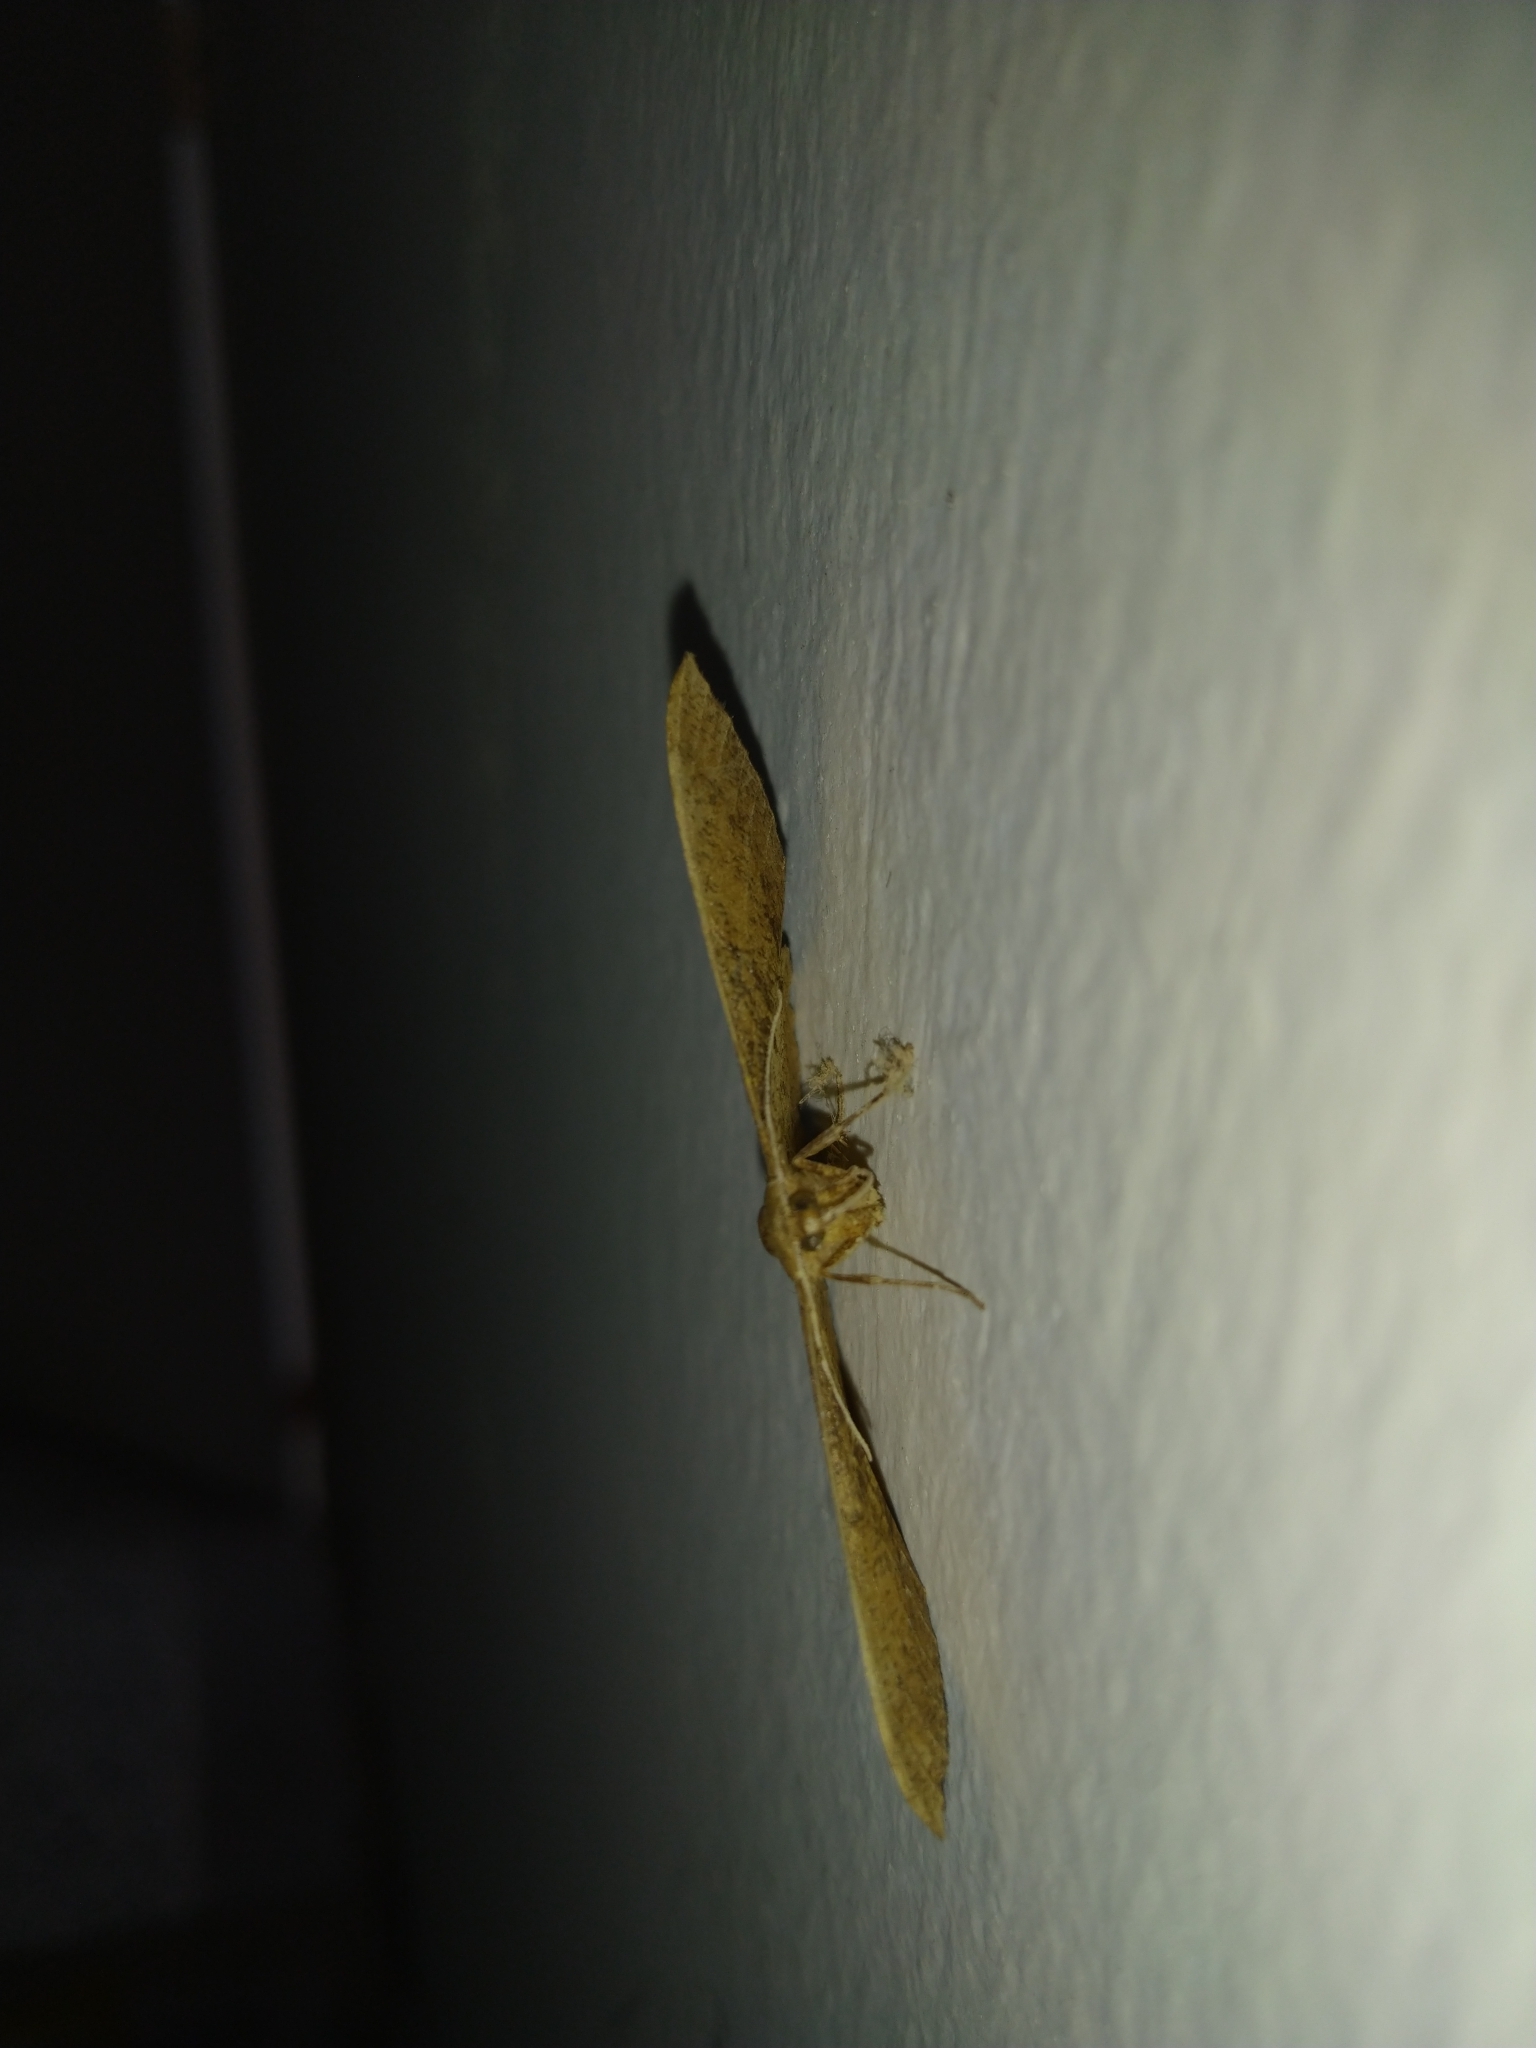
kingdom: Animalia
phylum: Arthropoda
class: Insecta
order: Lepidoptera
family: Geometridae
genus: Krananda
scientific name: Krananda falcata
